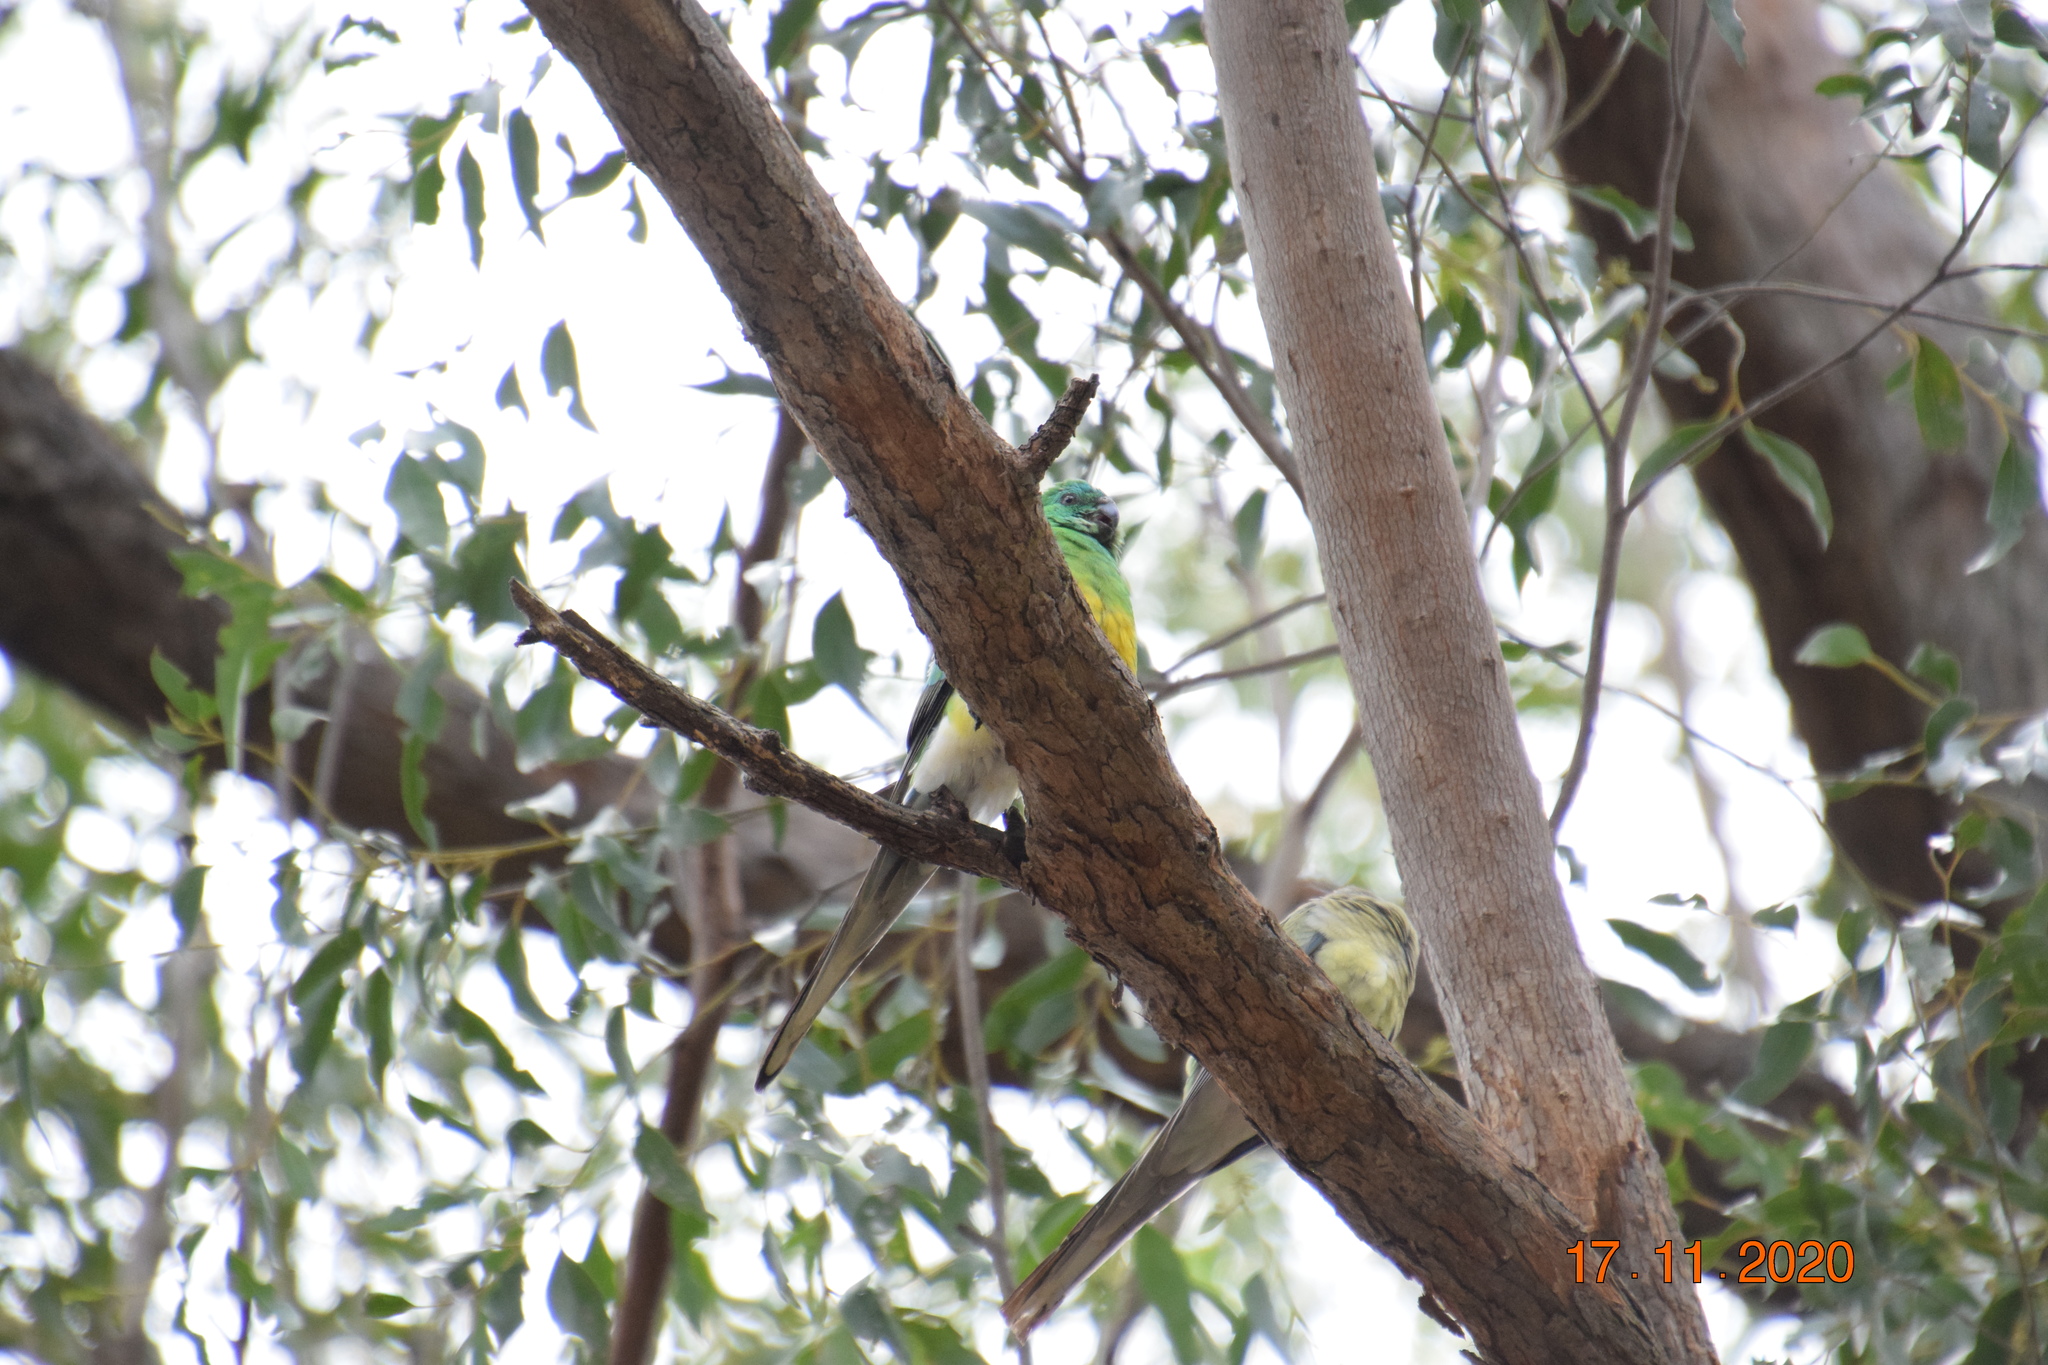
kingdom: Animalia
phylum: Chordata
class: Aves
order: Psittaciformes
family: Psittacidae
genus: Psephotus
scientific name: Psephotus haematonotus
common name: Red-rumped parrot
